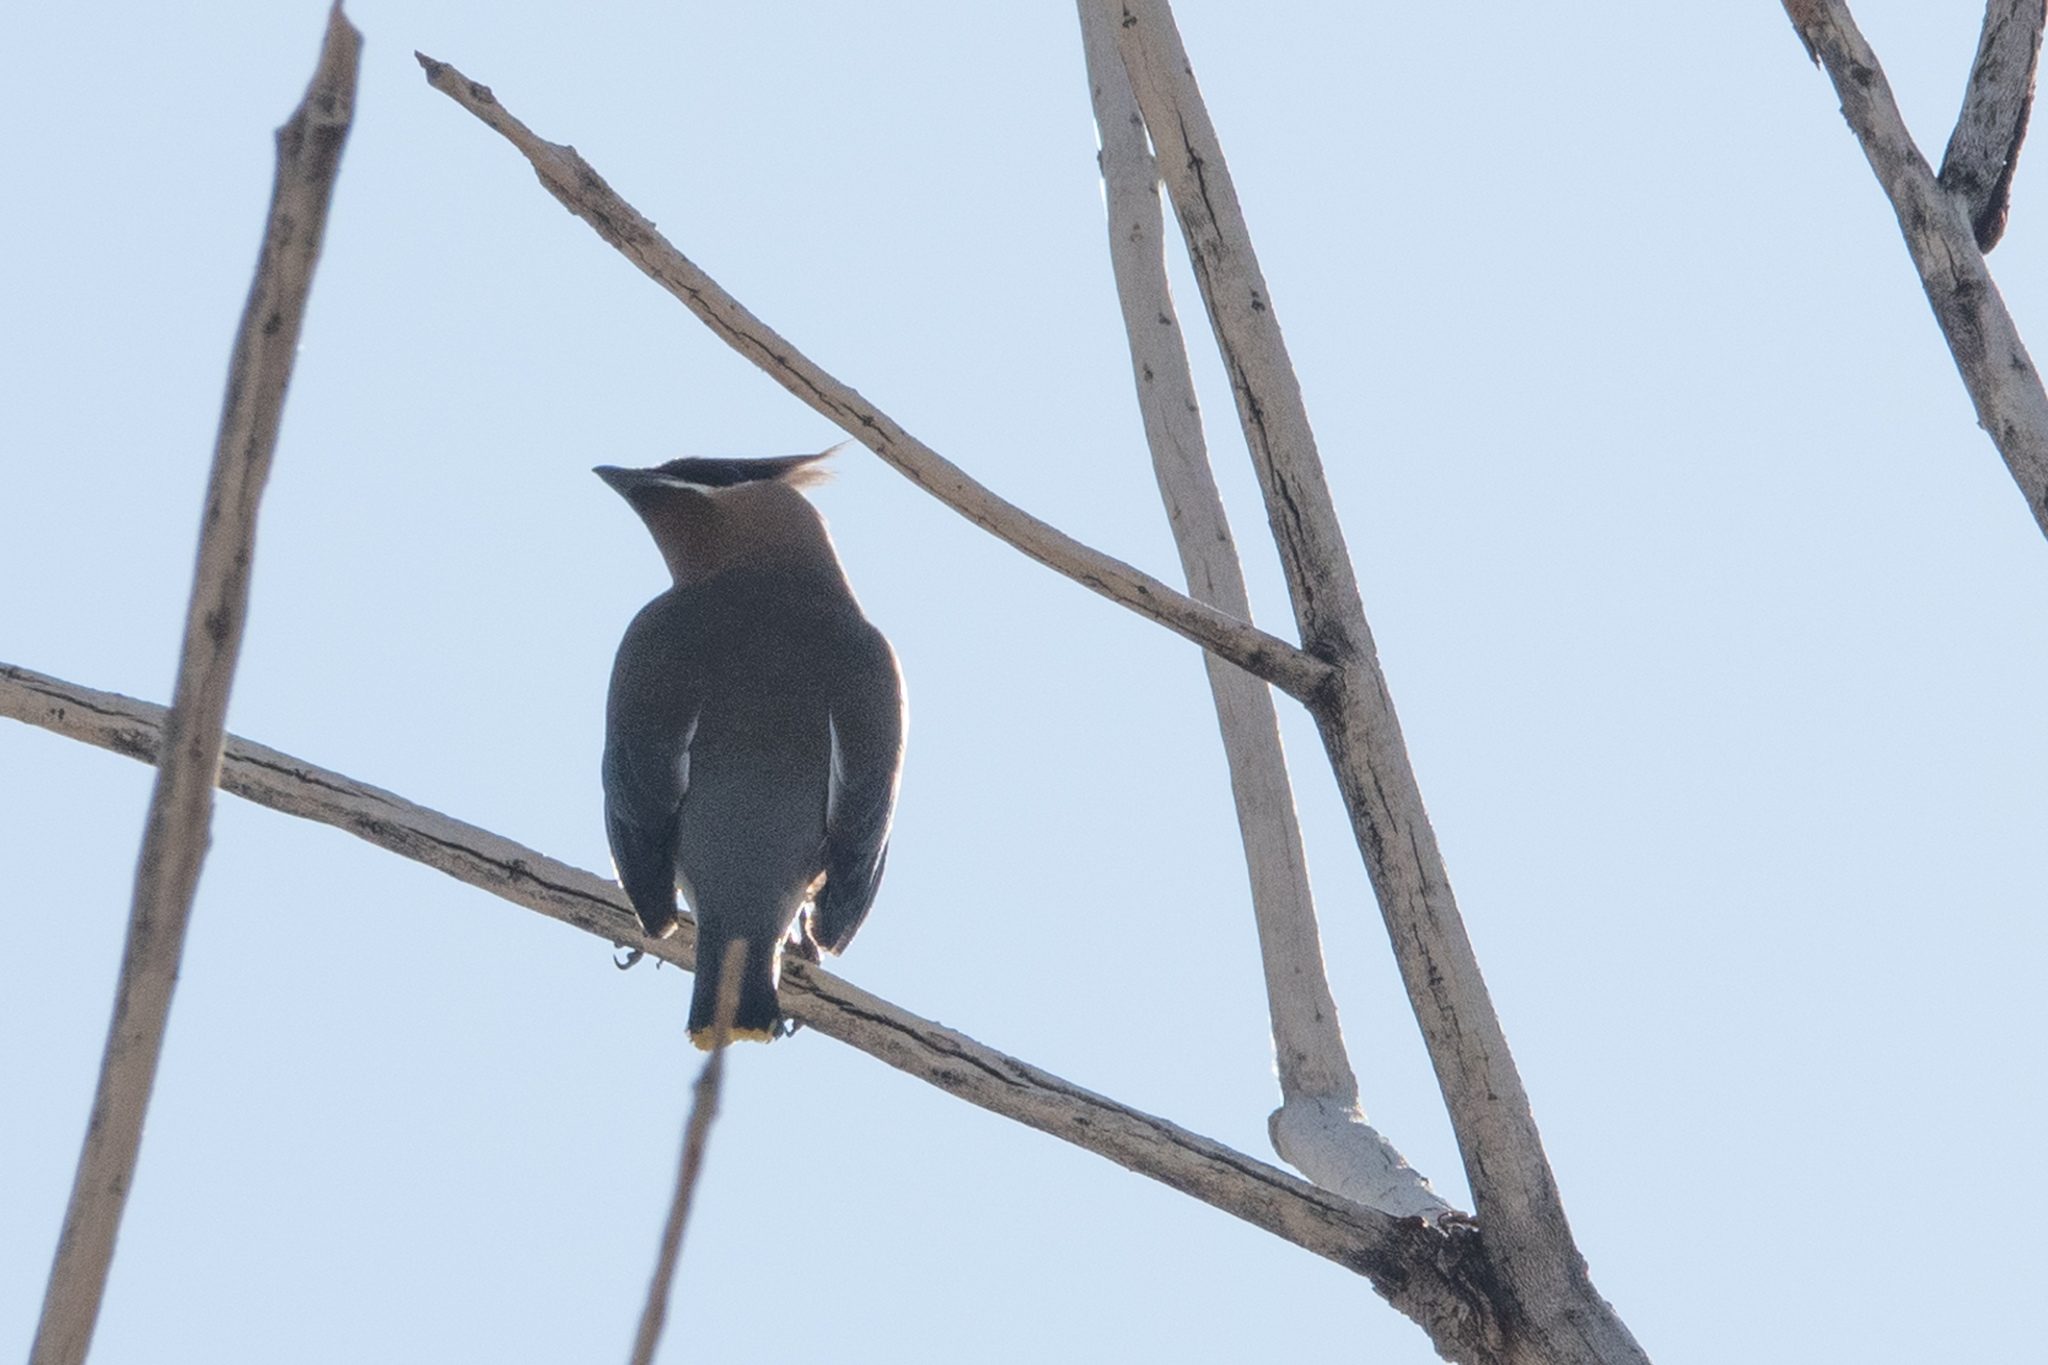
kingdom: Animalia
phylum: Chordata
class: Aves
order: Passeriformes
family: Bombycillidae
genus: Bombycilla
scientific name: Bombycilla cedrorum
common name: Cedar waxwing
